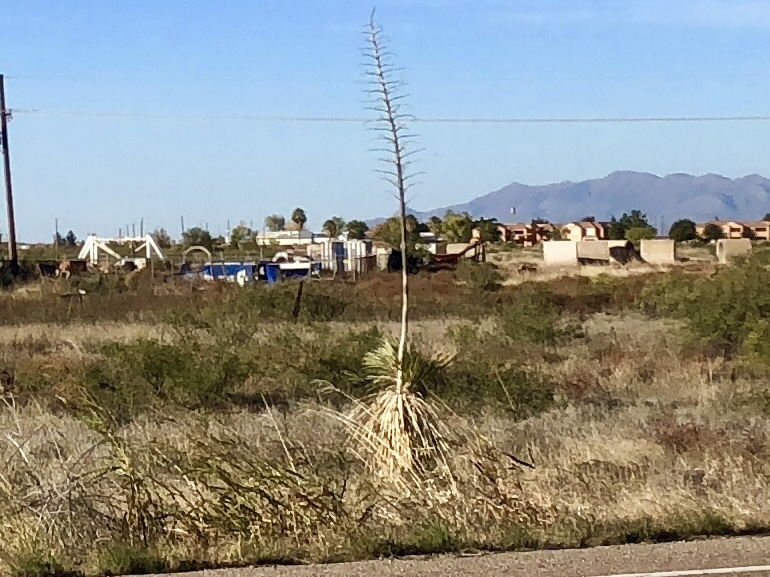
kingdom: Plantae
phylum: Tracheophyta
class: Liliopsida
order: Asparagales
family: Asparagaceae
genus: Yucca
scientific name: Yucca elata
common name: Palmella
